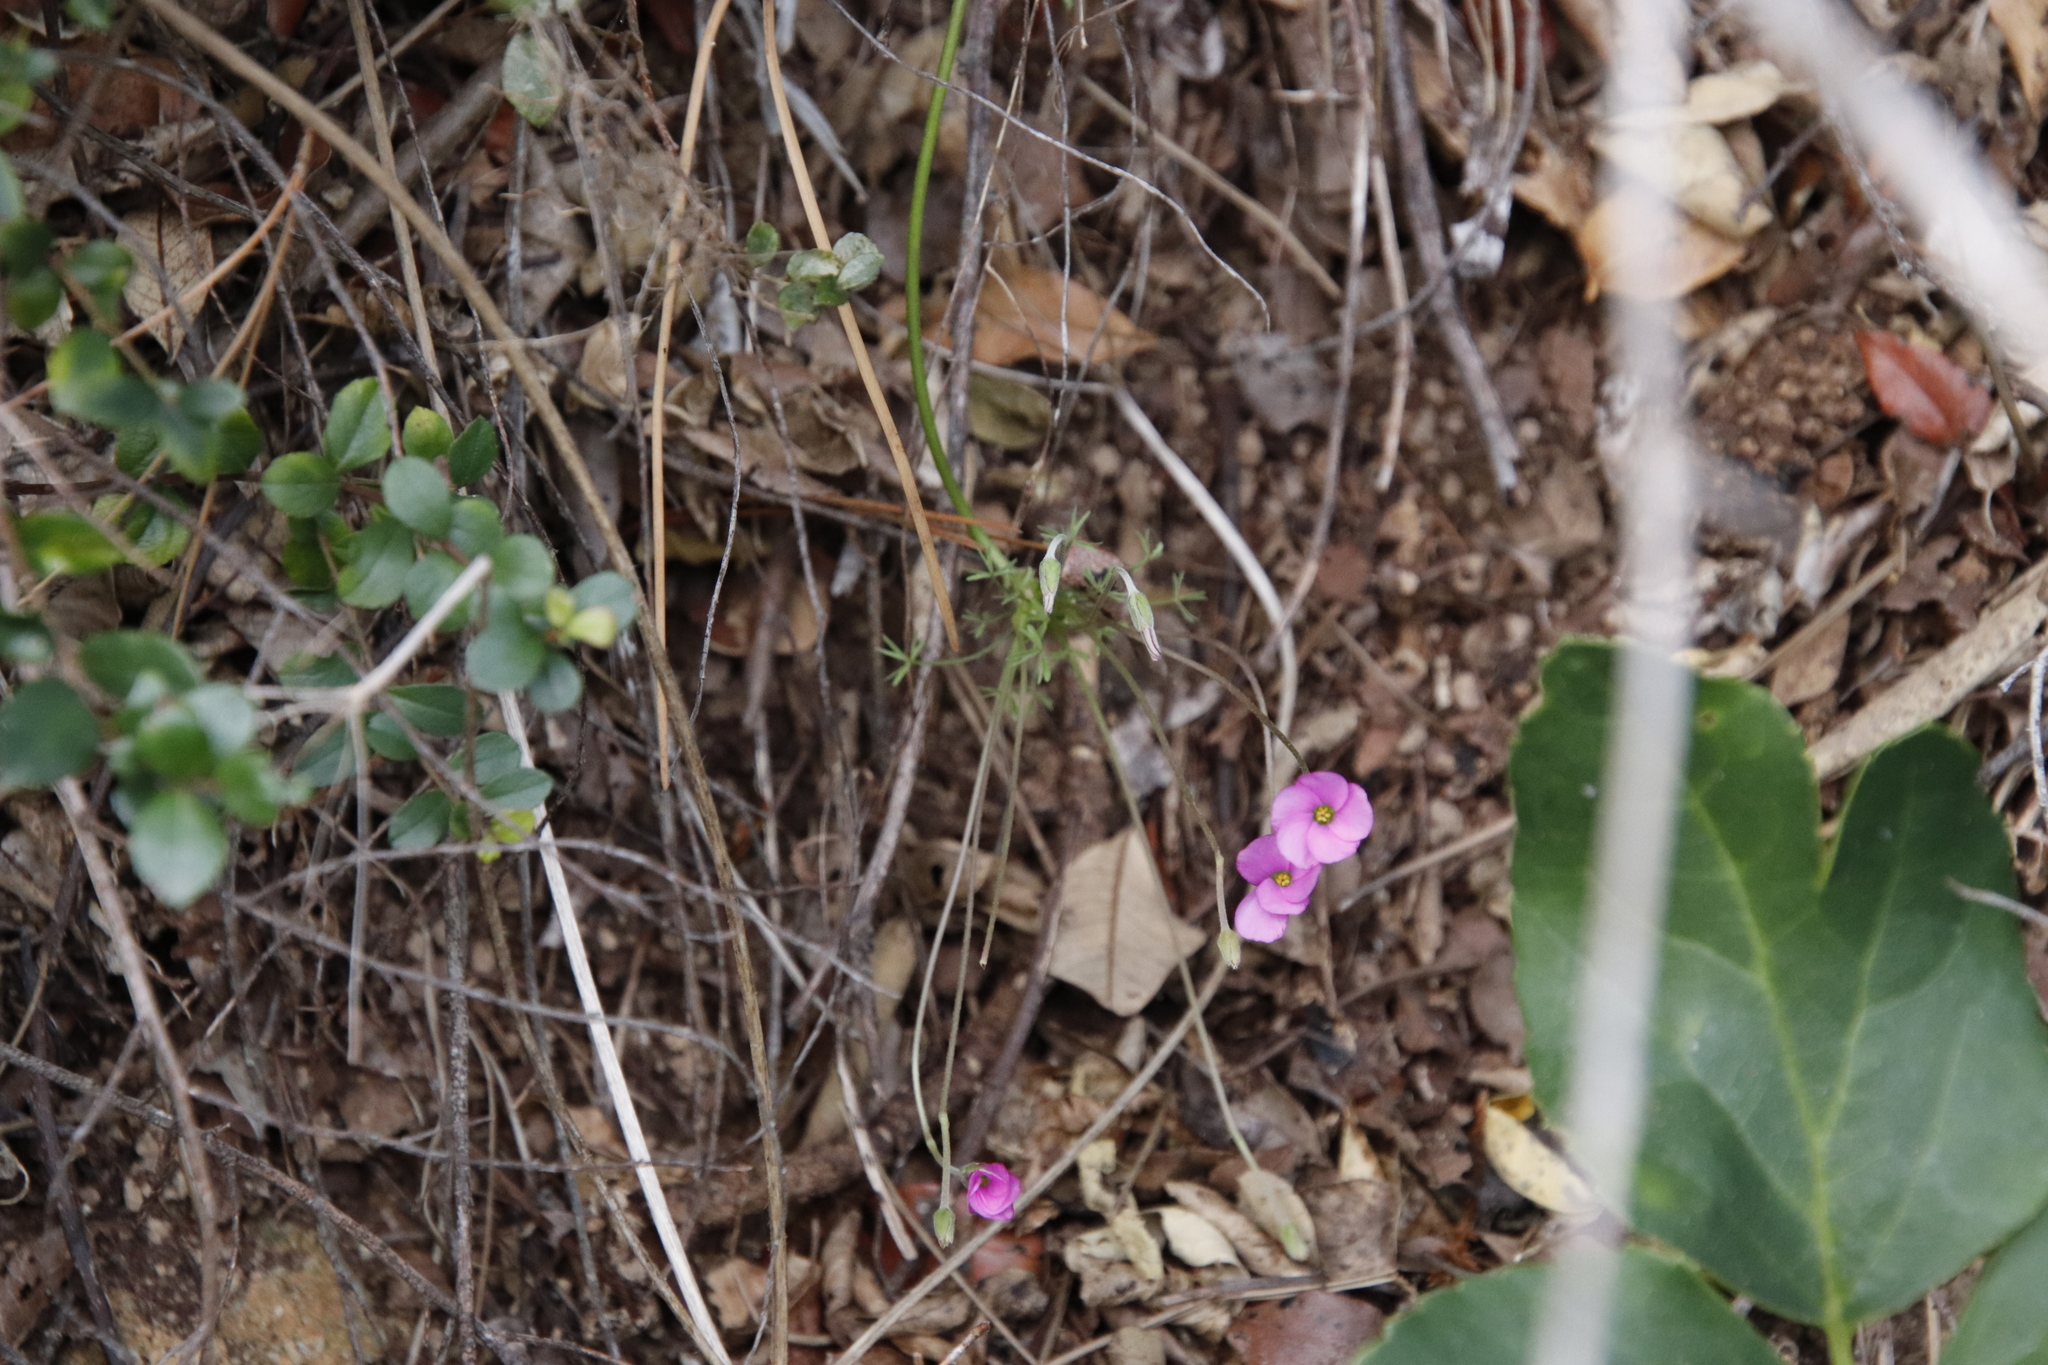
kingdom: Plantae
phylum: Tracheophyta
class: Magnoliopsida
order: Oxalidales
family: Oxalidaceae
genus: Oxalis
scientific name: Oxalis bifida
